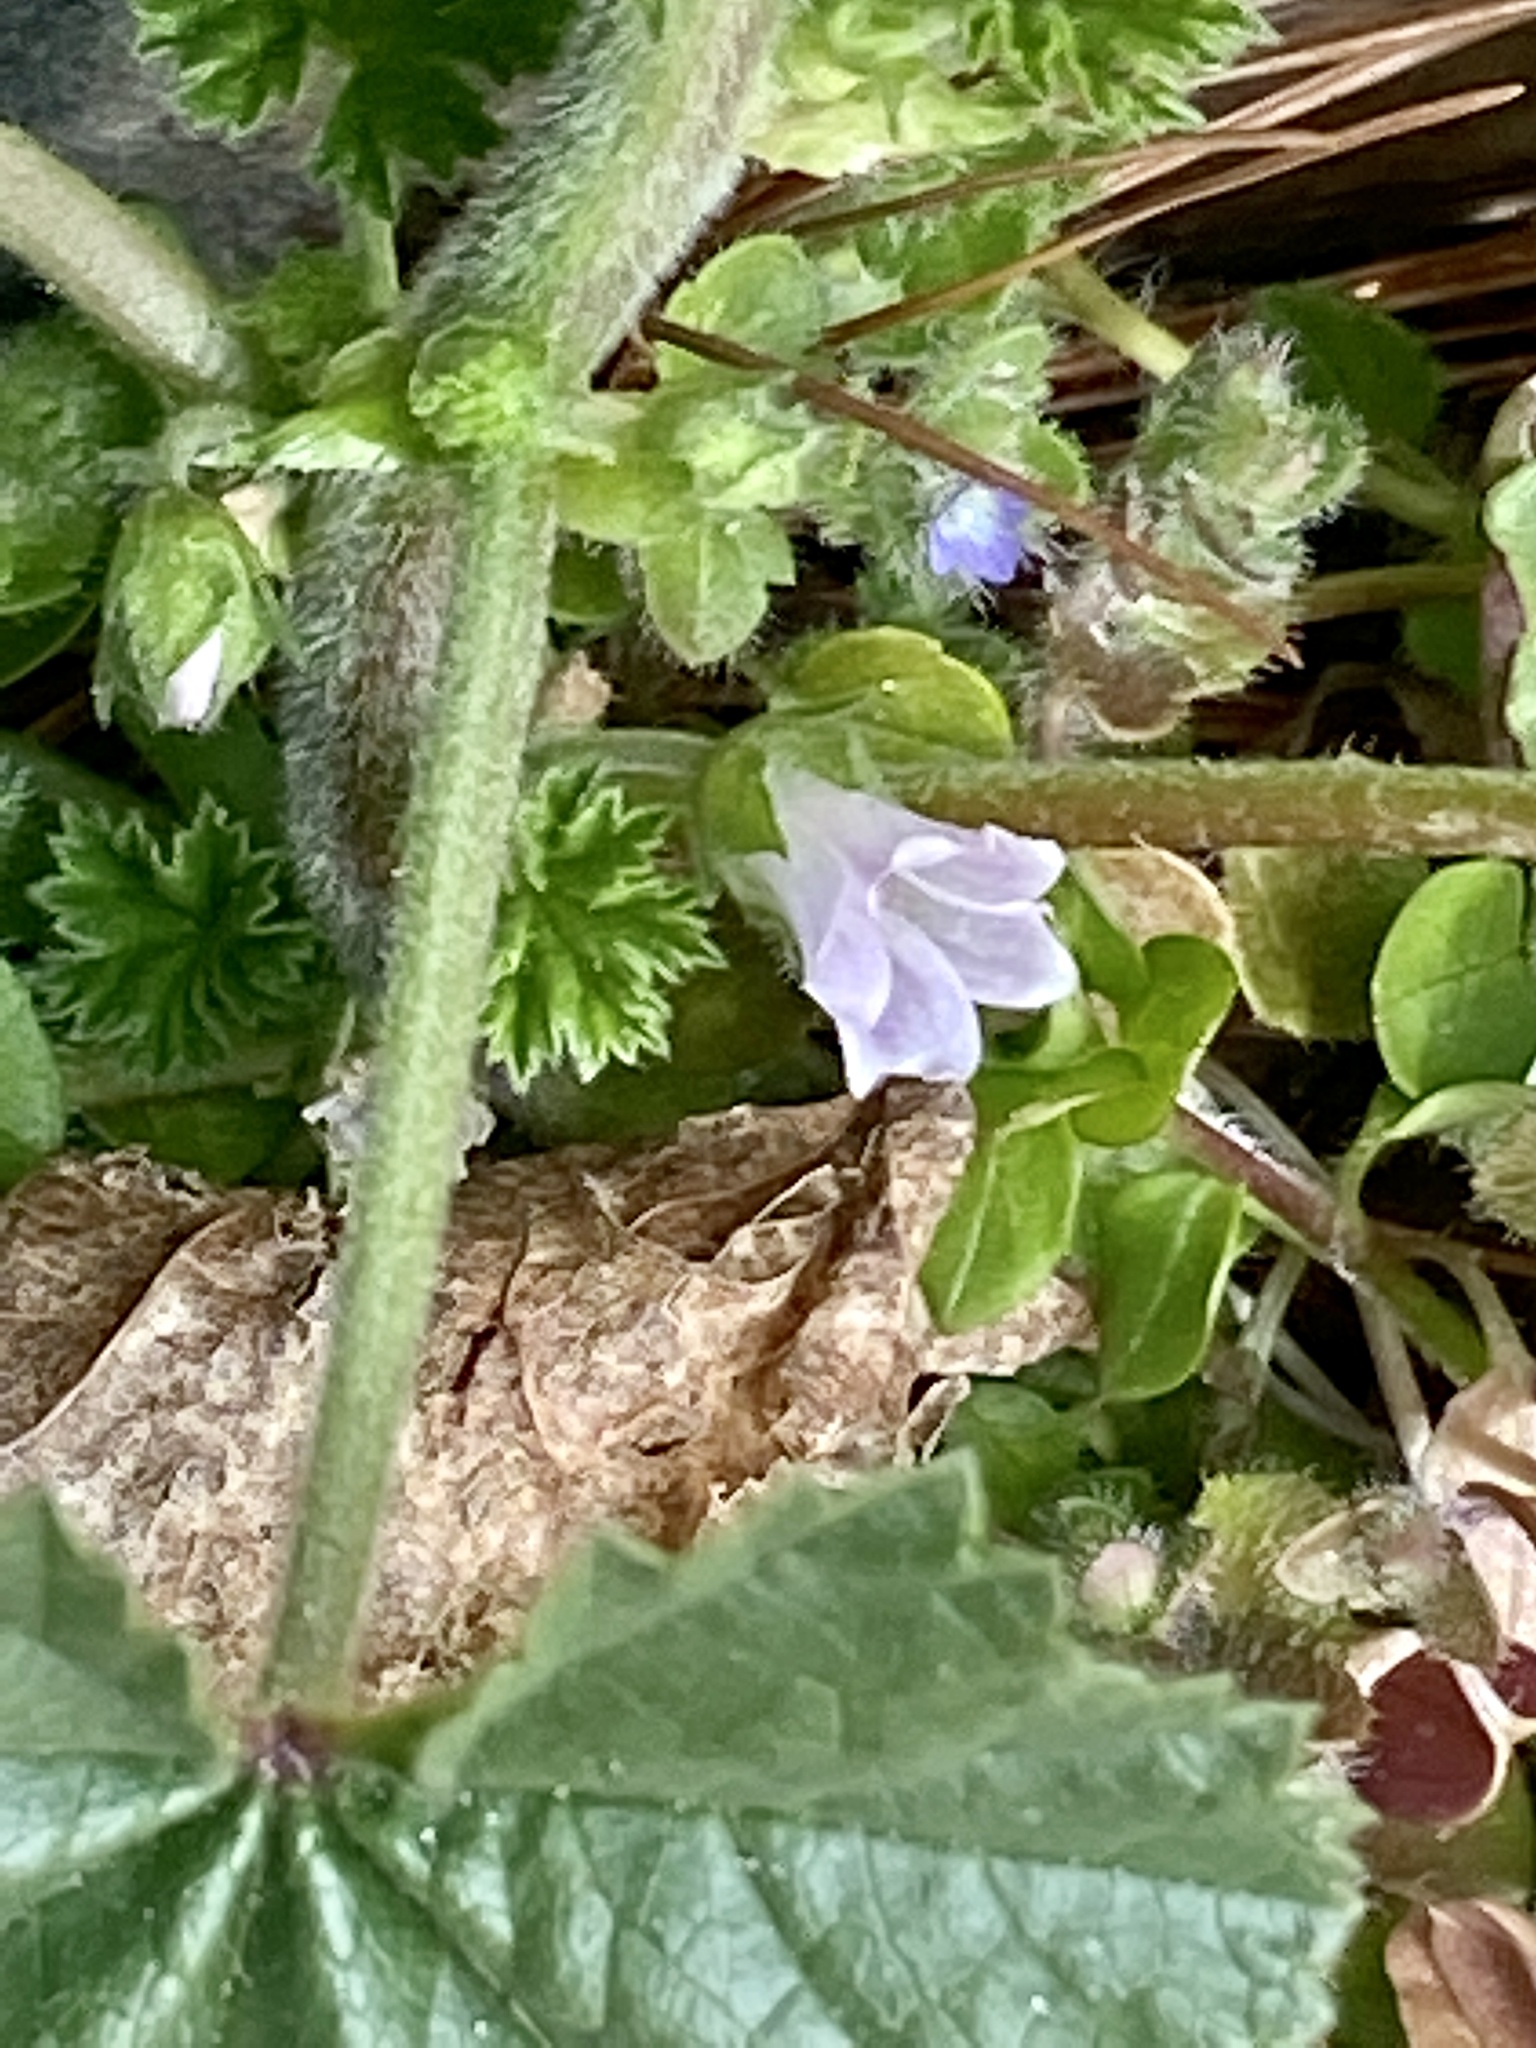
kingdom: Plantae
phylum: Tracheophyta
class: Magnoliopsida
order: Malvales
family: Malvaceae
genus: Malva
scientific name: Malva neglecta
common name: Common mallow
